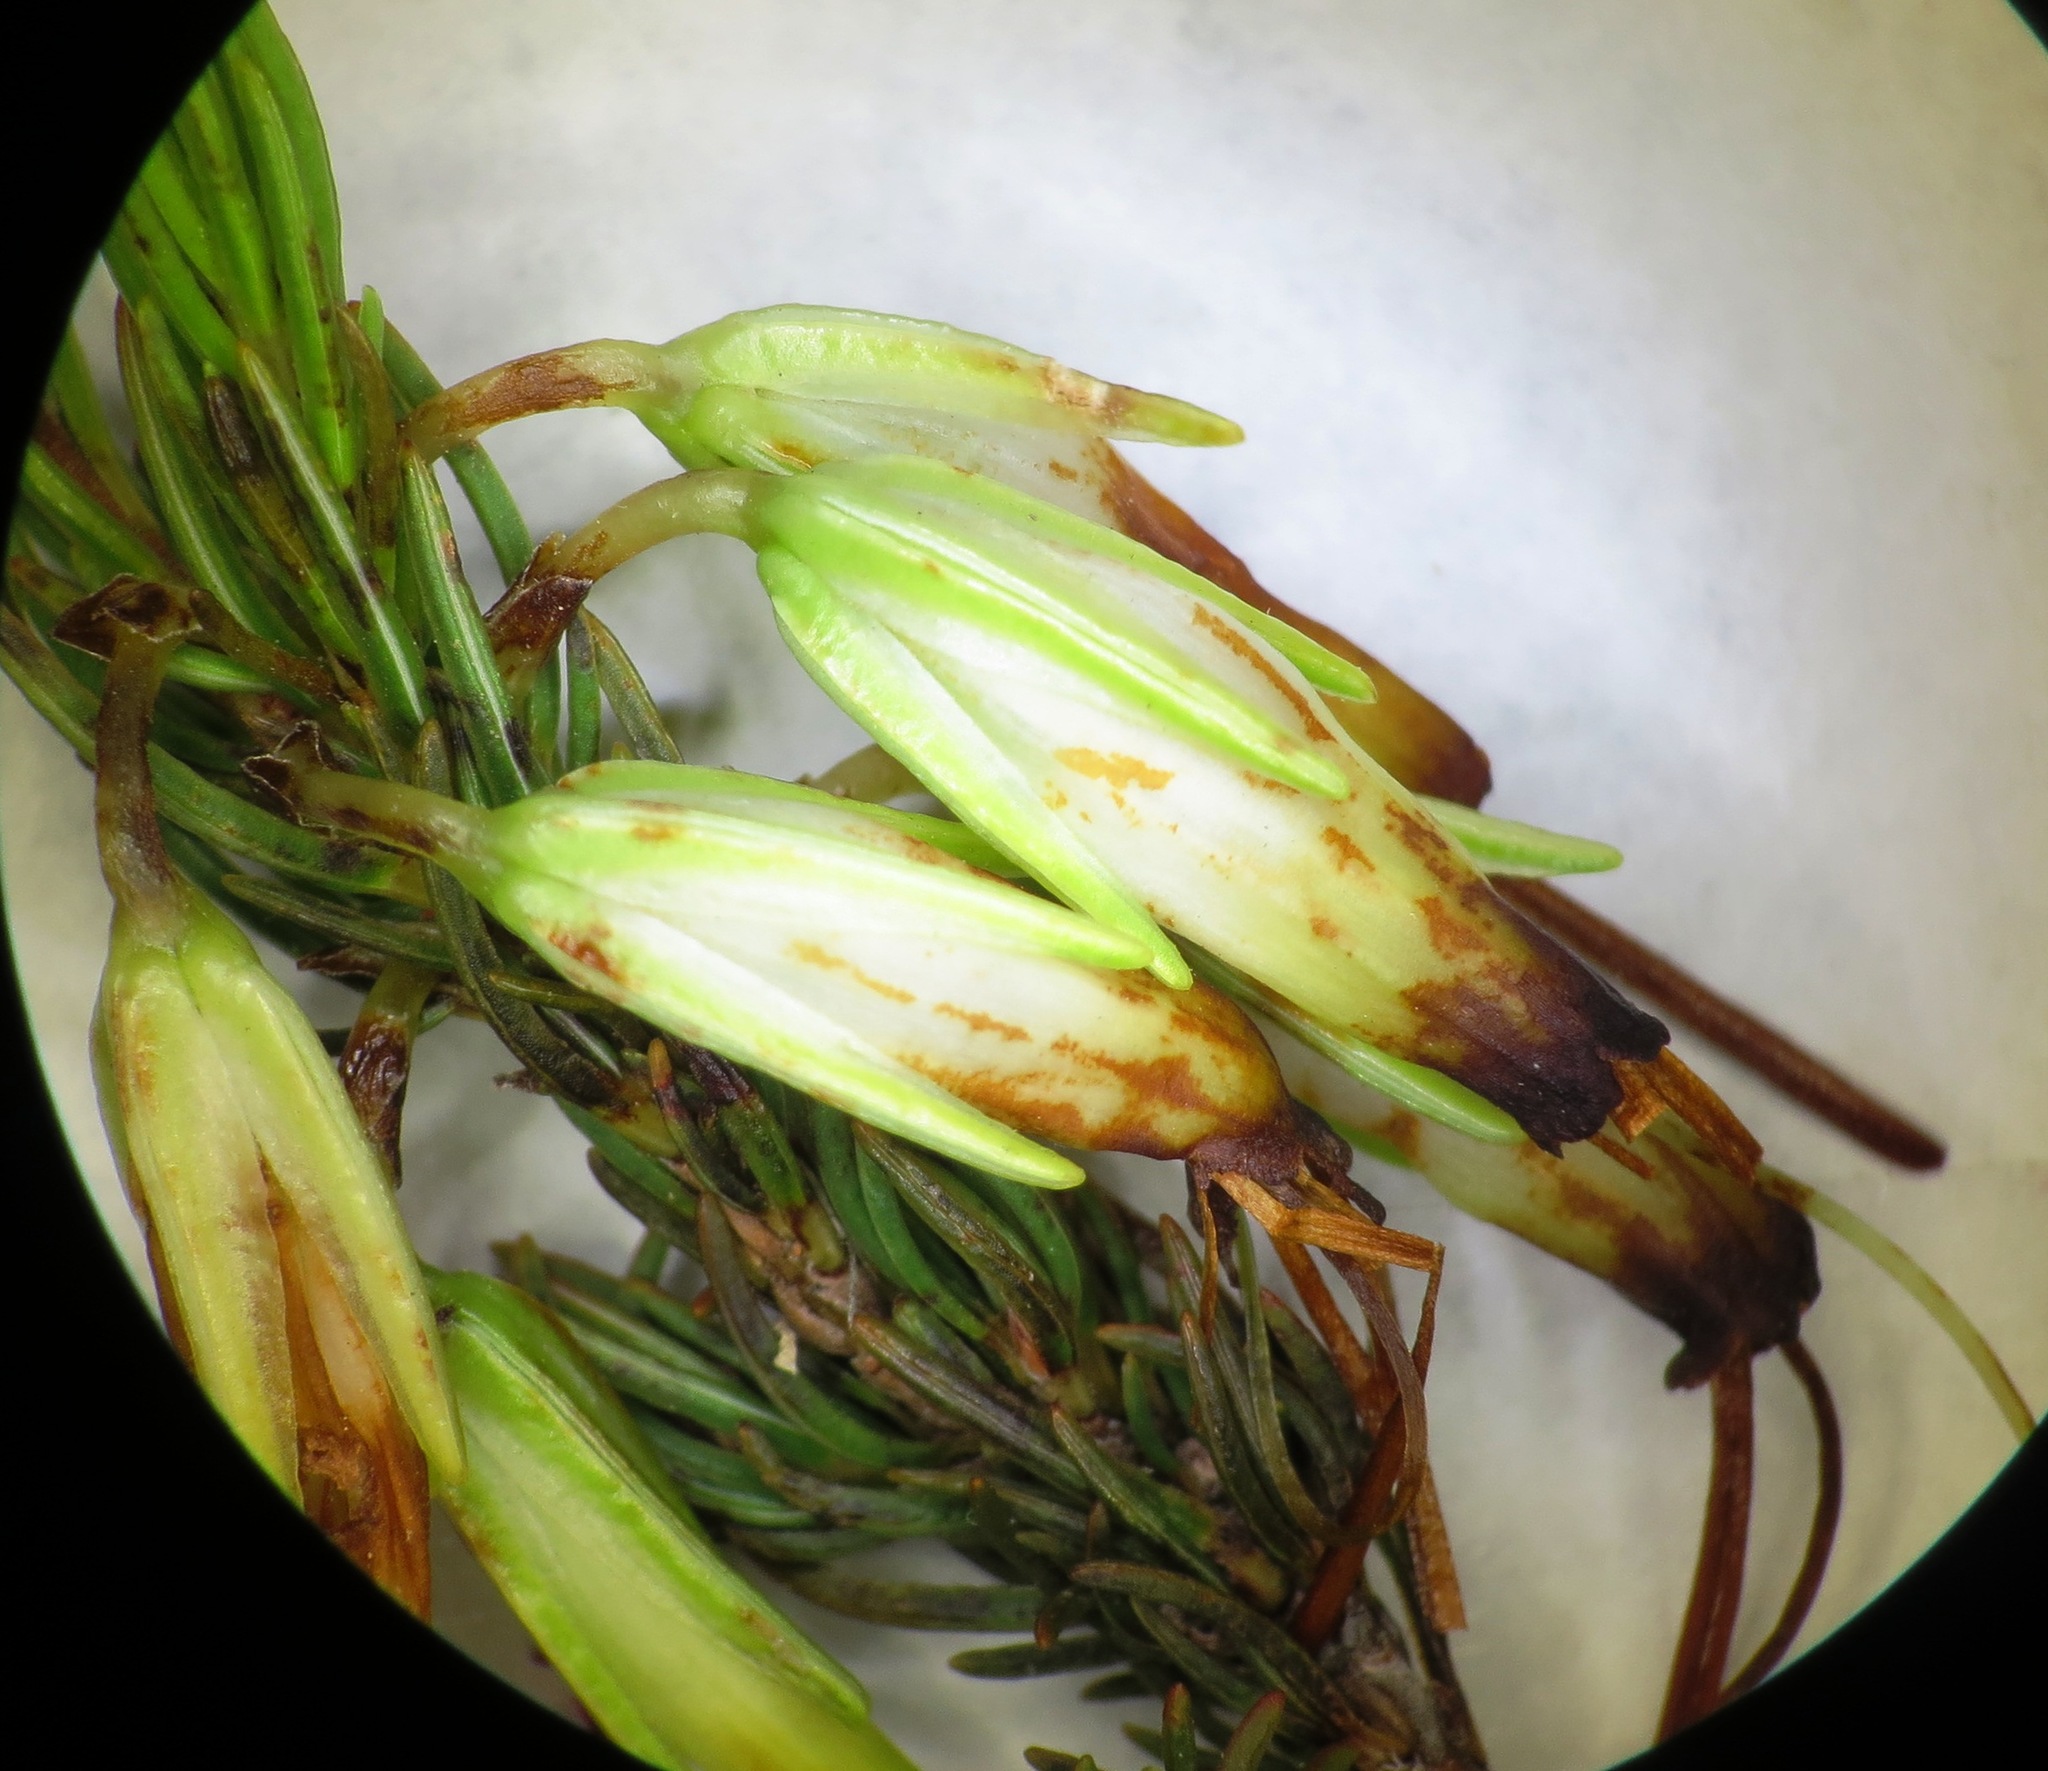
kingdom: Plantae
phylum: Tracheophyta
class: Magnoliopsida
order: Ericales
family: Ericaceae
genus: Erica
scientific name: Erica plukenetii
